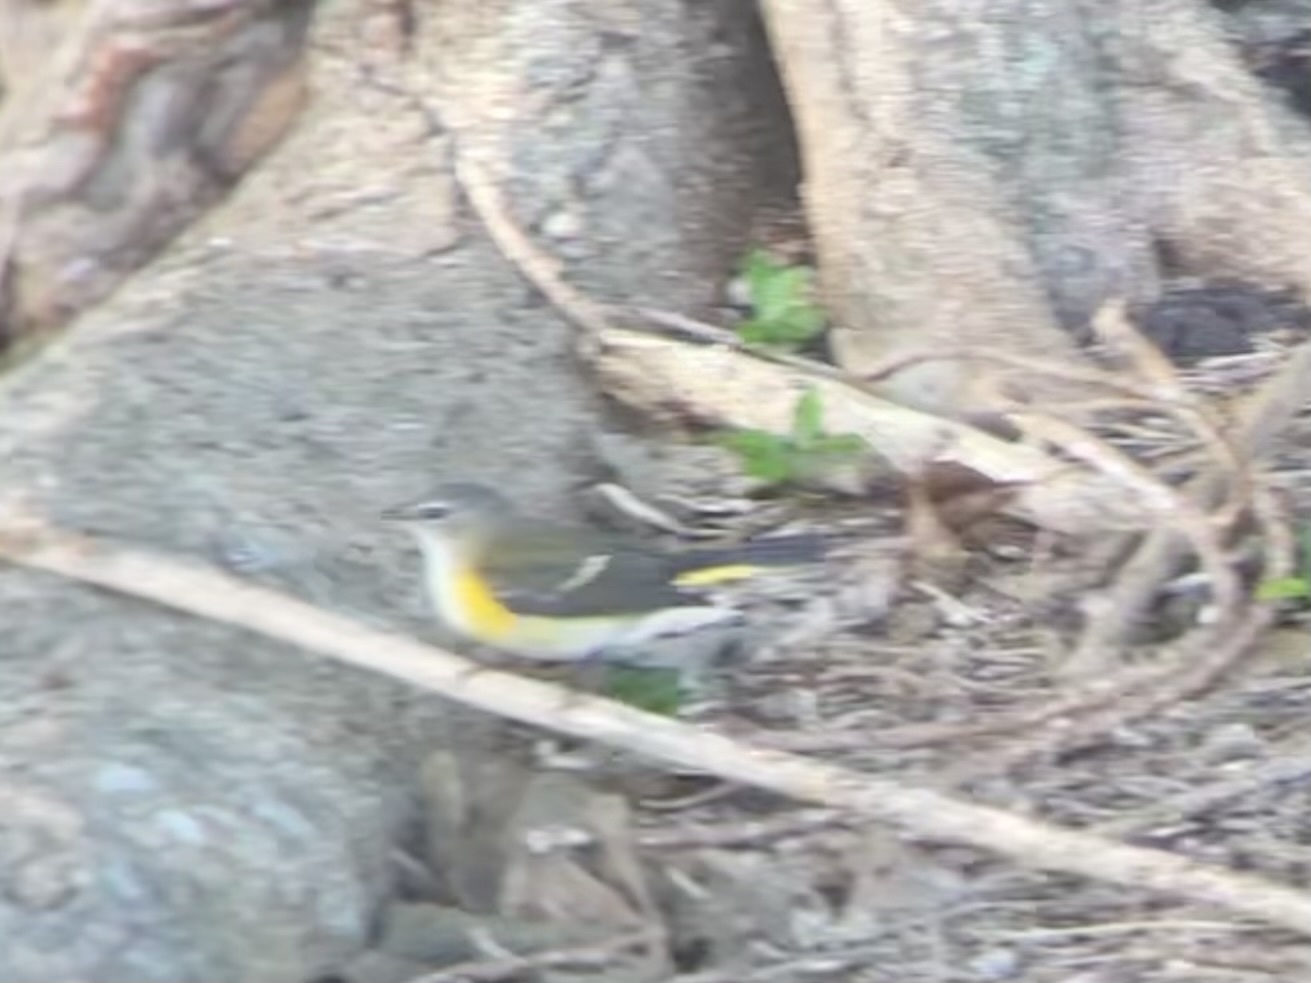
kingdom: Animalia
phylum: Chordata
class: Aves
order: Passeriformes
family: Parulidae
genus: Setophaga
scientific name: Setophaga ruticilla
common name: American redstart
